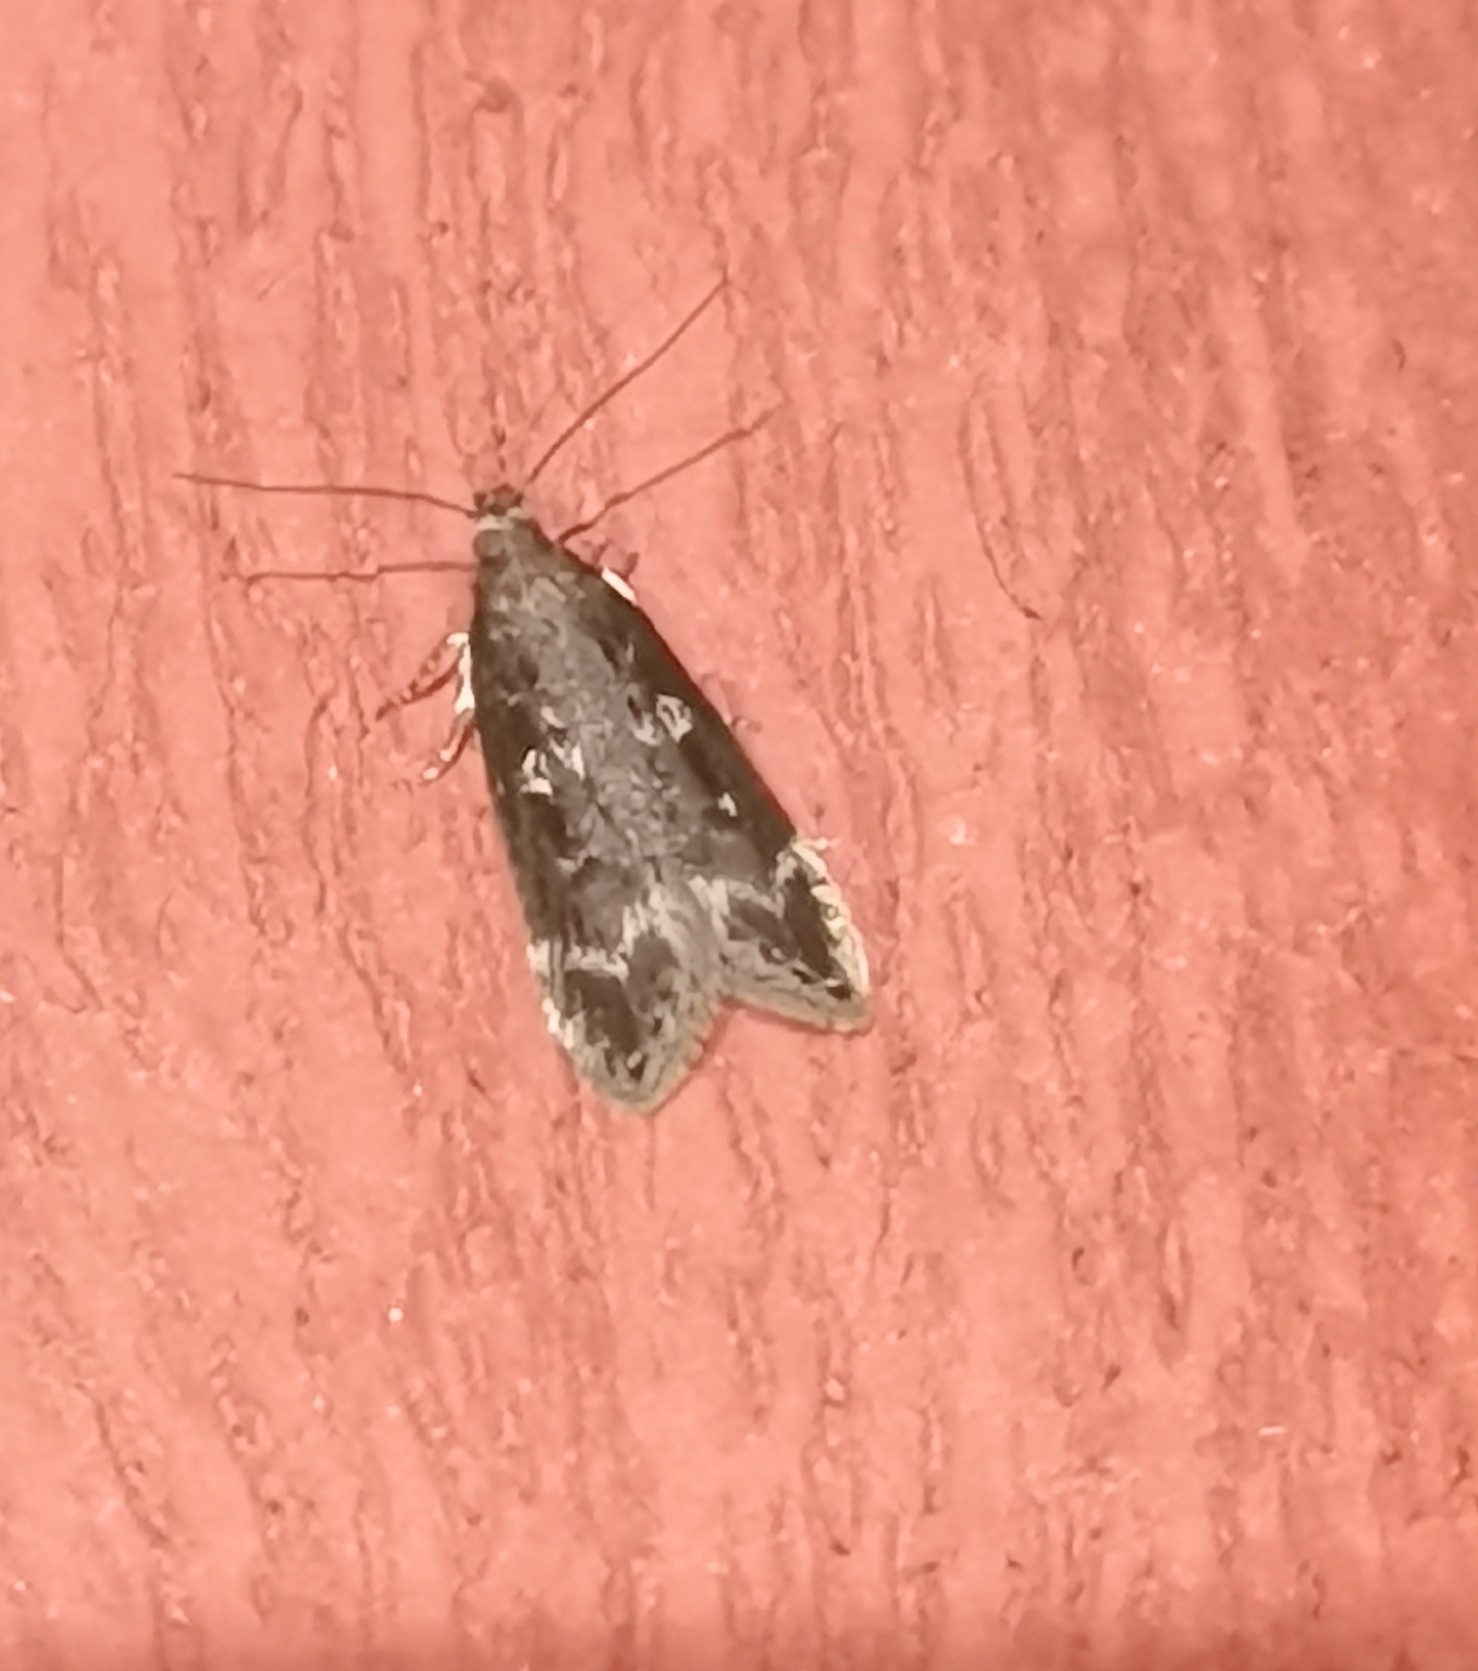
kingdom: Animalia
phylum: Arthropoda
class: Insecta
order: Lepidoptera
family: Gelechiidae
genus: Gelechia
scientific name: Gelechia sororculella
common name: Dark-striped groundling
